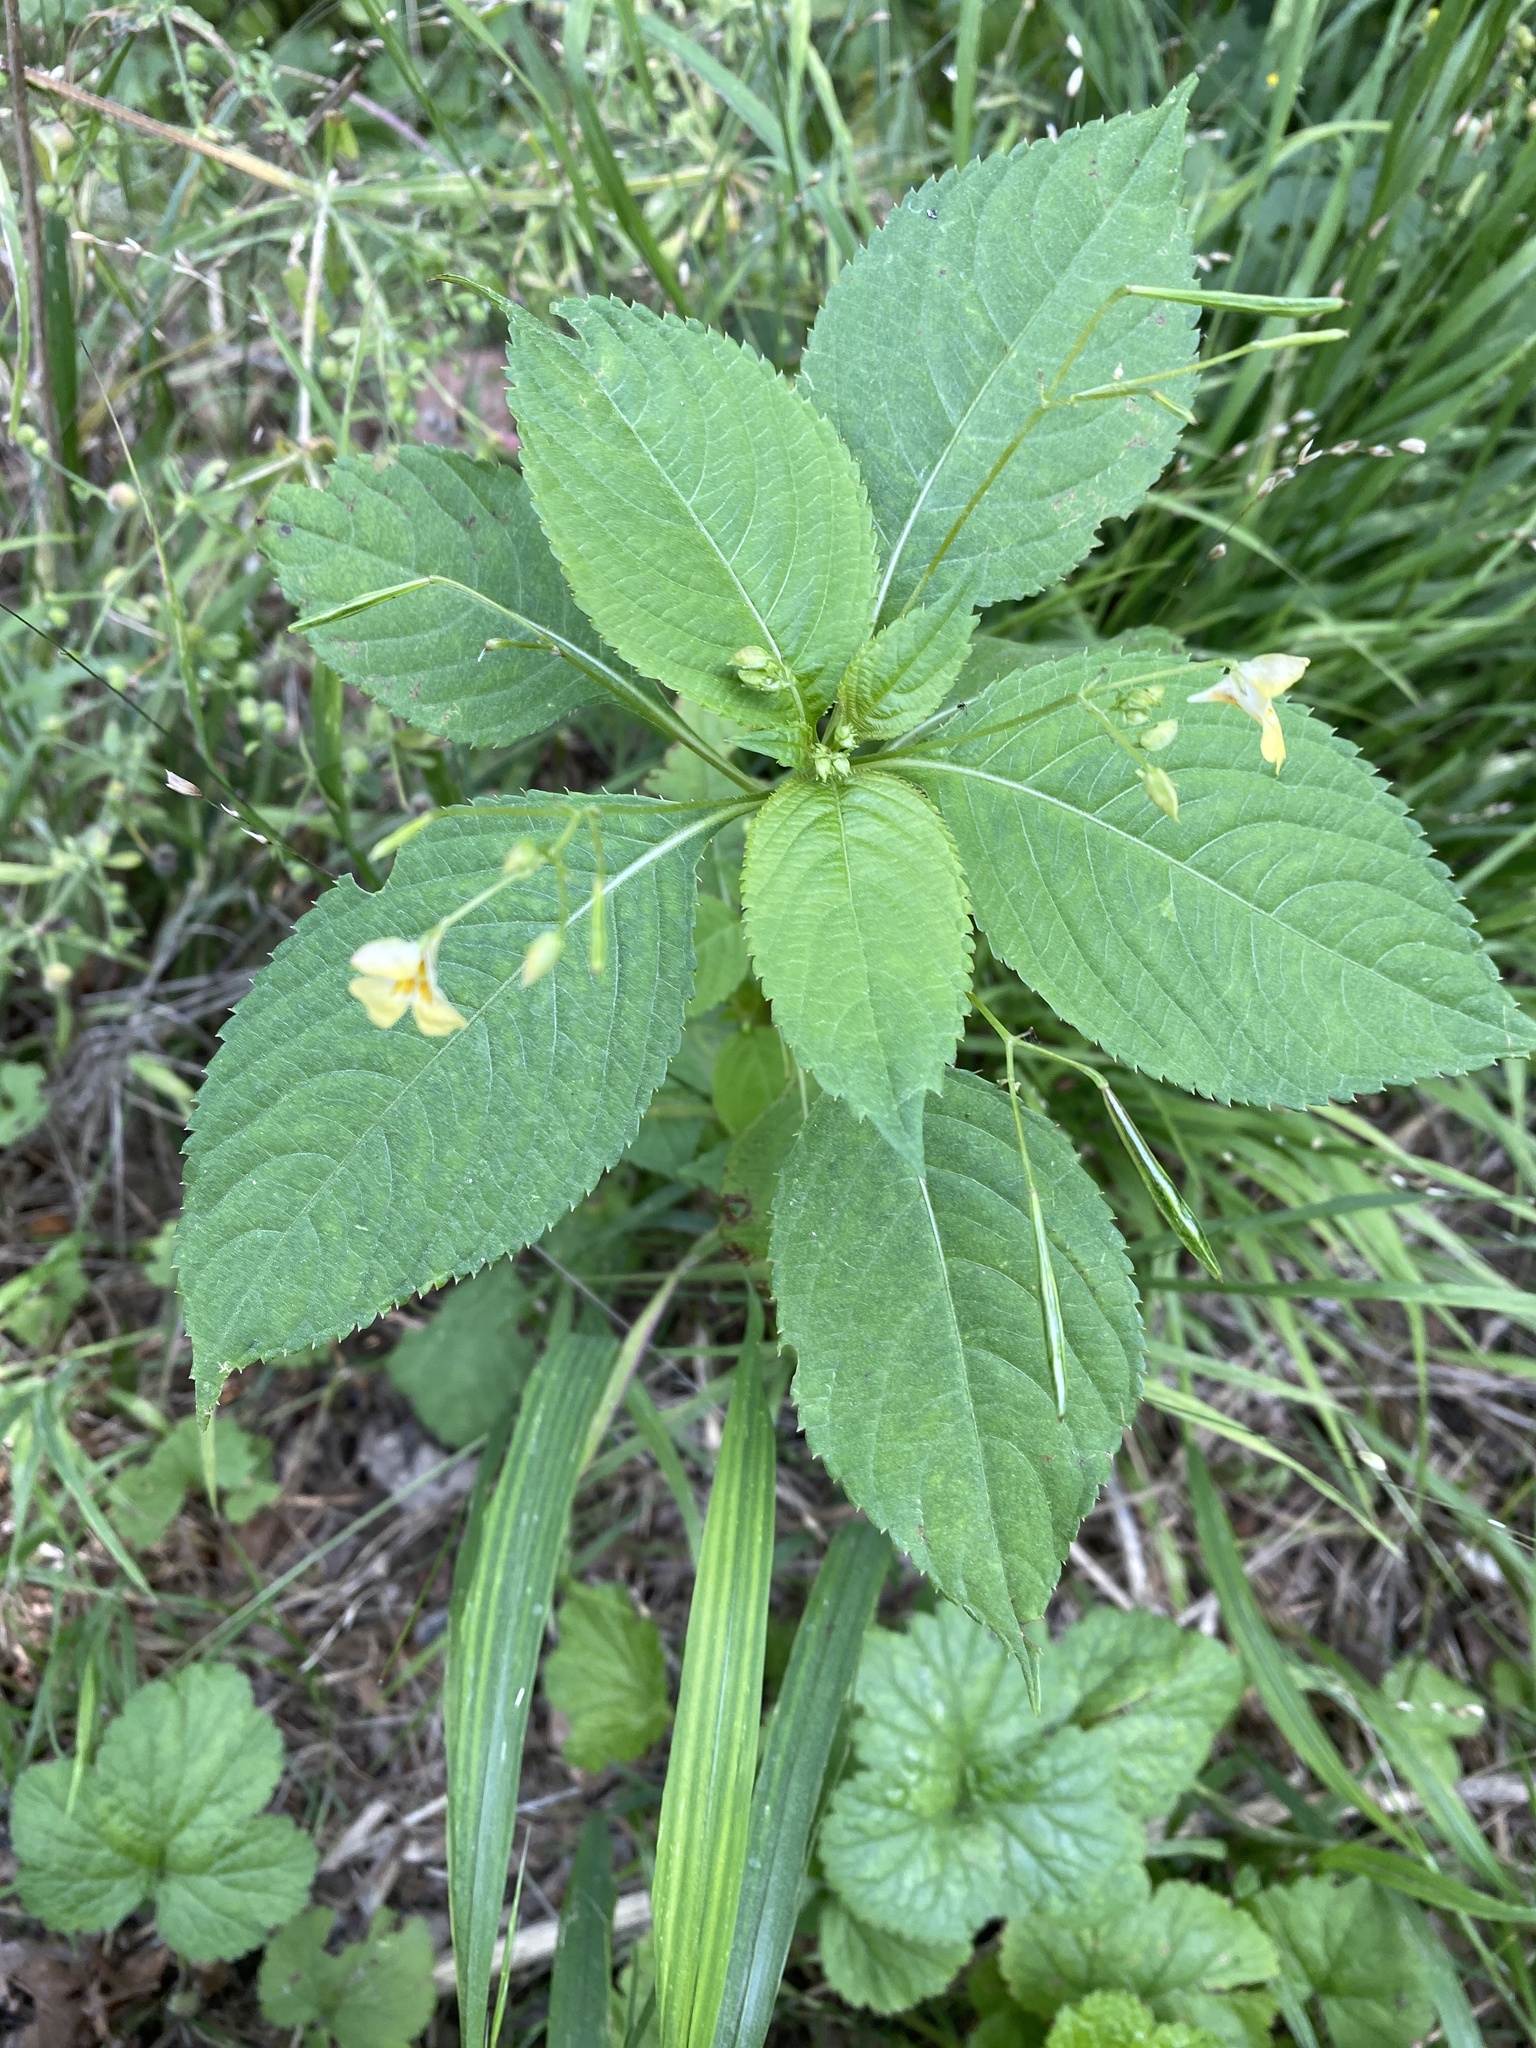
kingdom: Plantae
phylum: Tracheophyta
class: Magnoliopsida
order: Ericales
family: Balsaminaceae
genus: Impatiens
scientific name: Impatiens parviflora
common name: Small balsam
